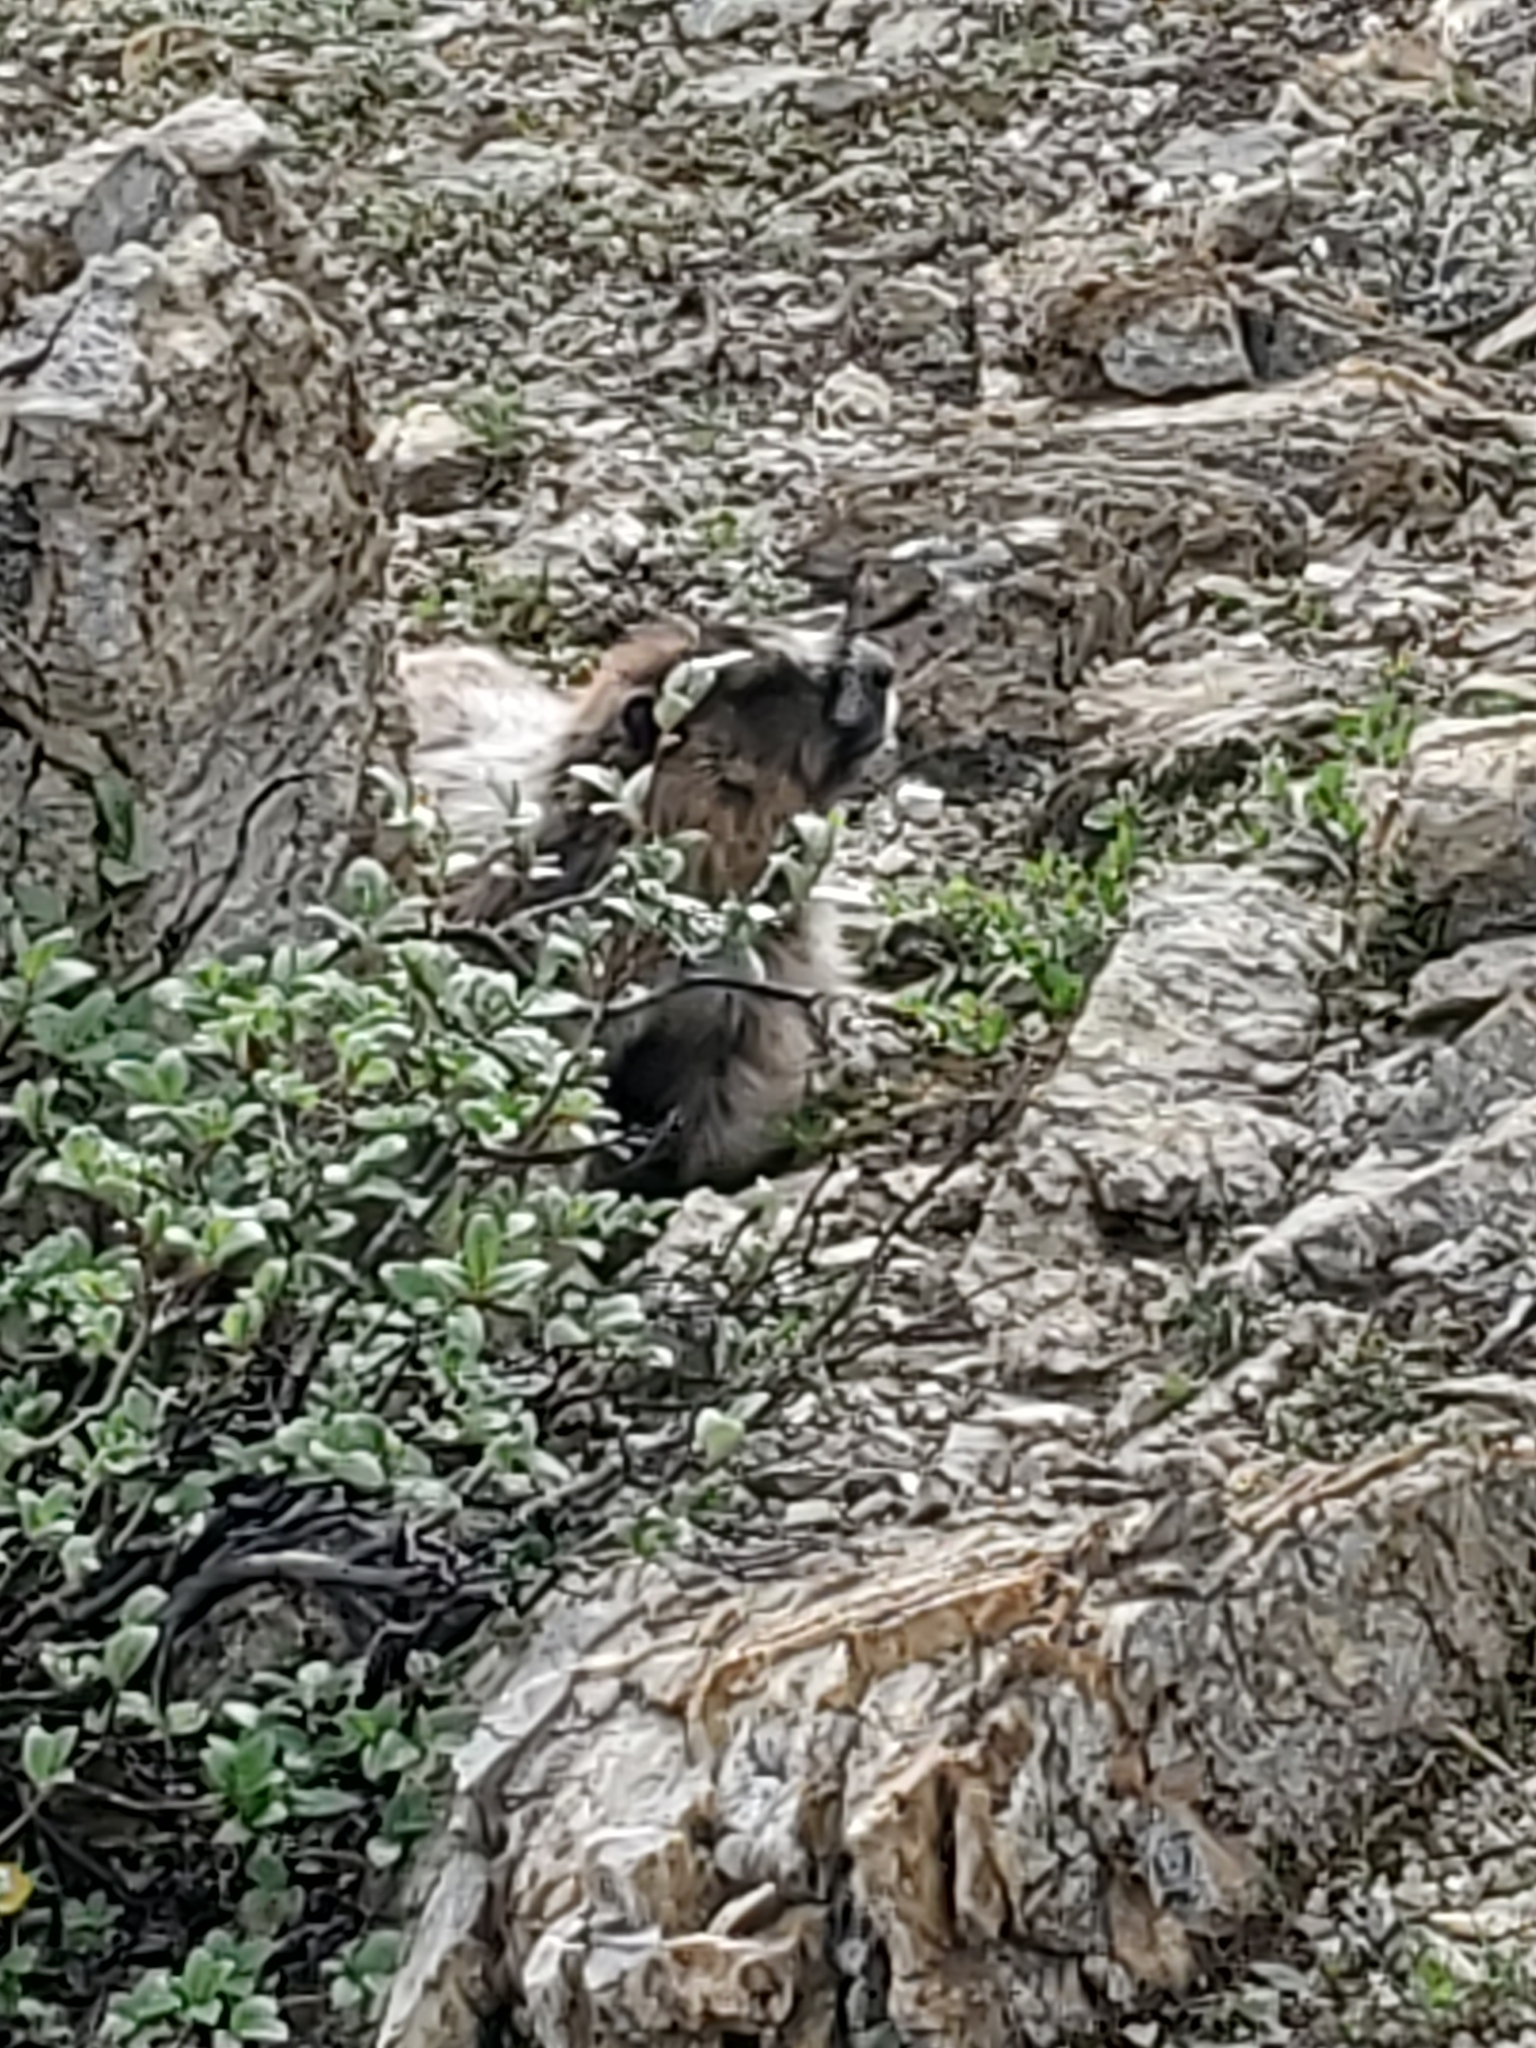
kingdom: Animalia
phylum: Chordata
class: Mammalia
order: Rodentia
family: Sciuridae
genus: Marmota
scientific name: Marmota caligata
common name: Hoary marmot
